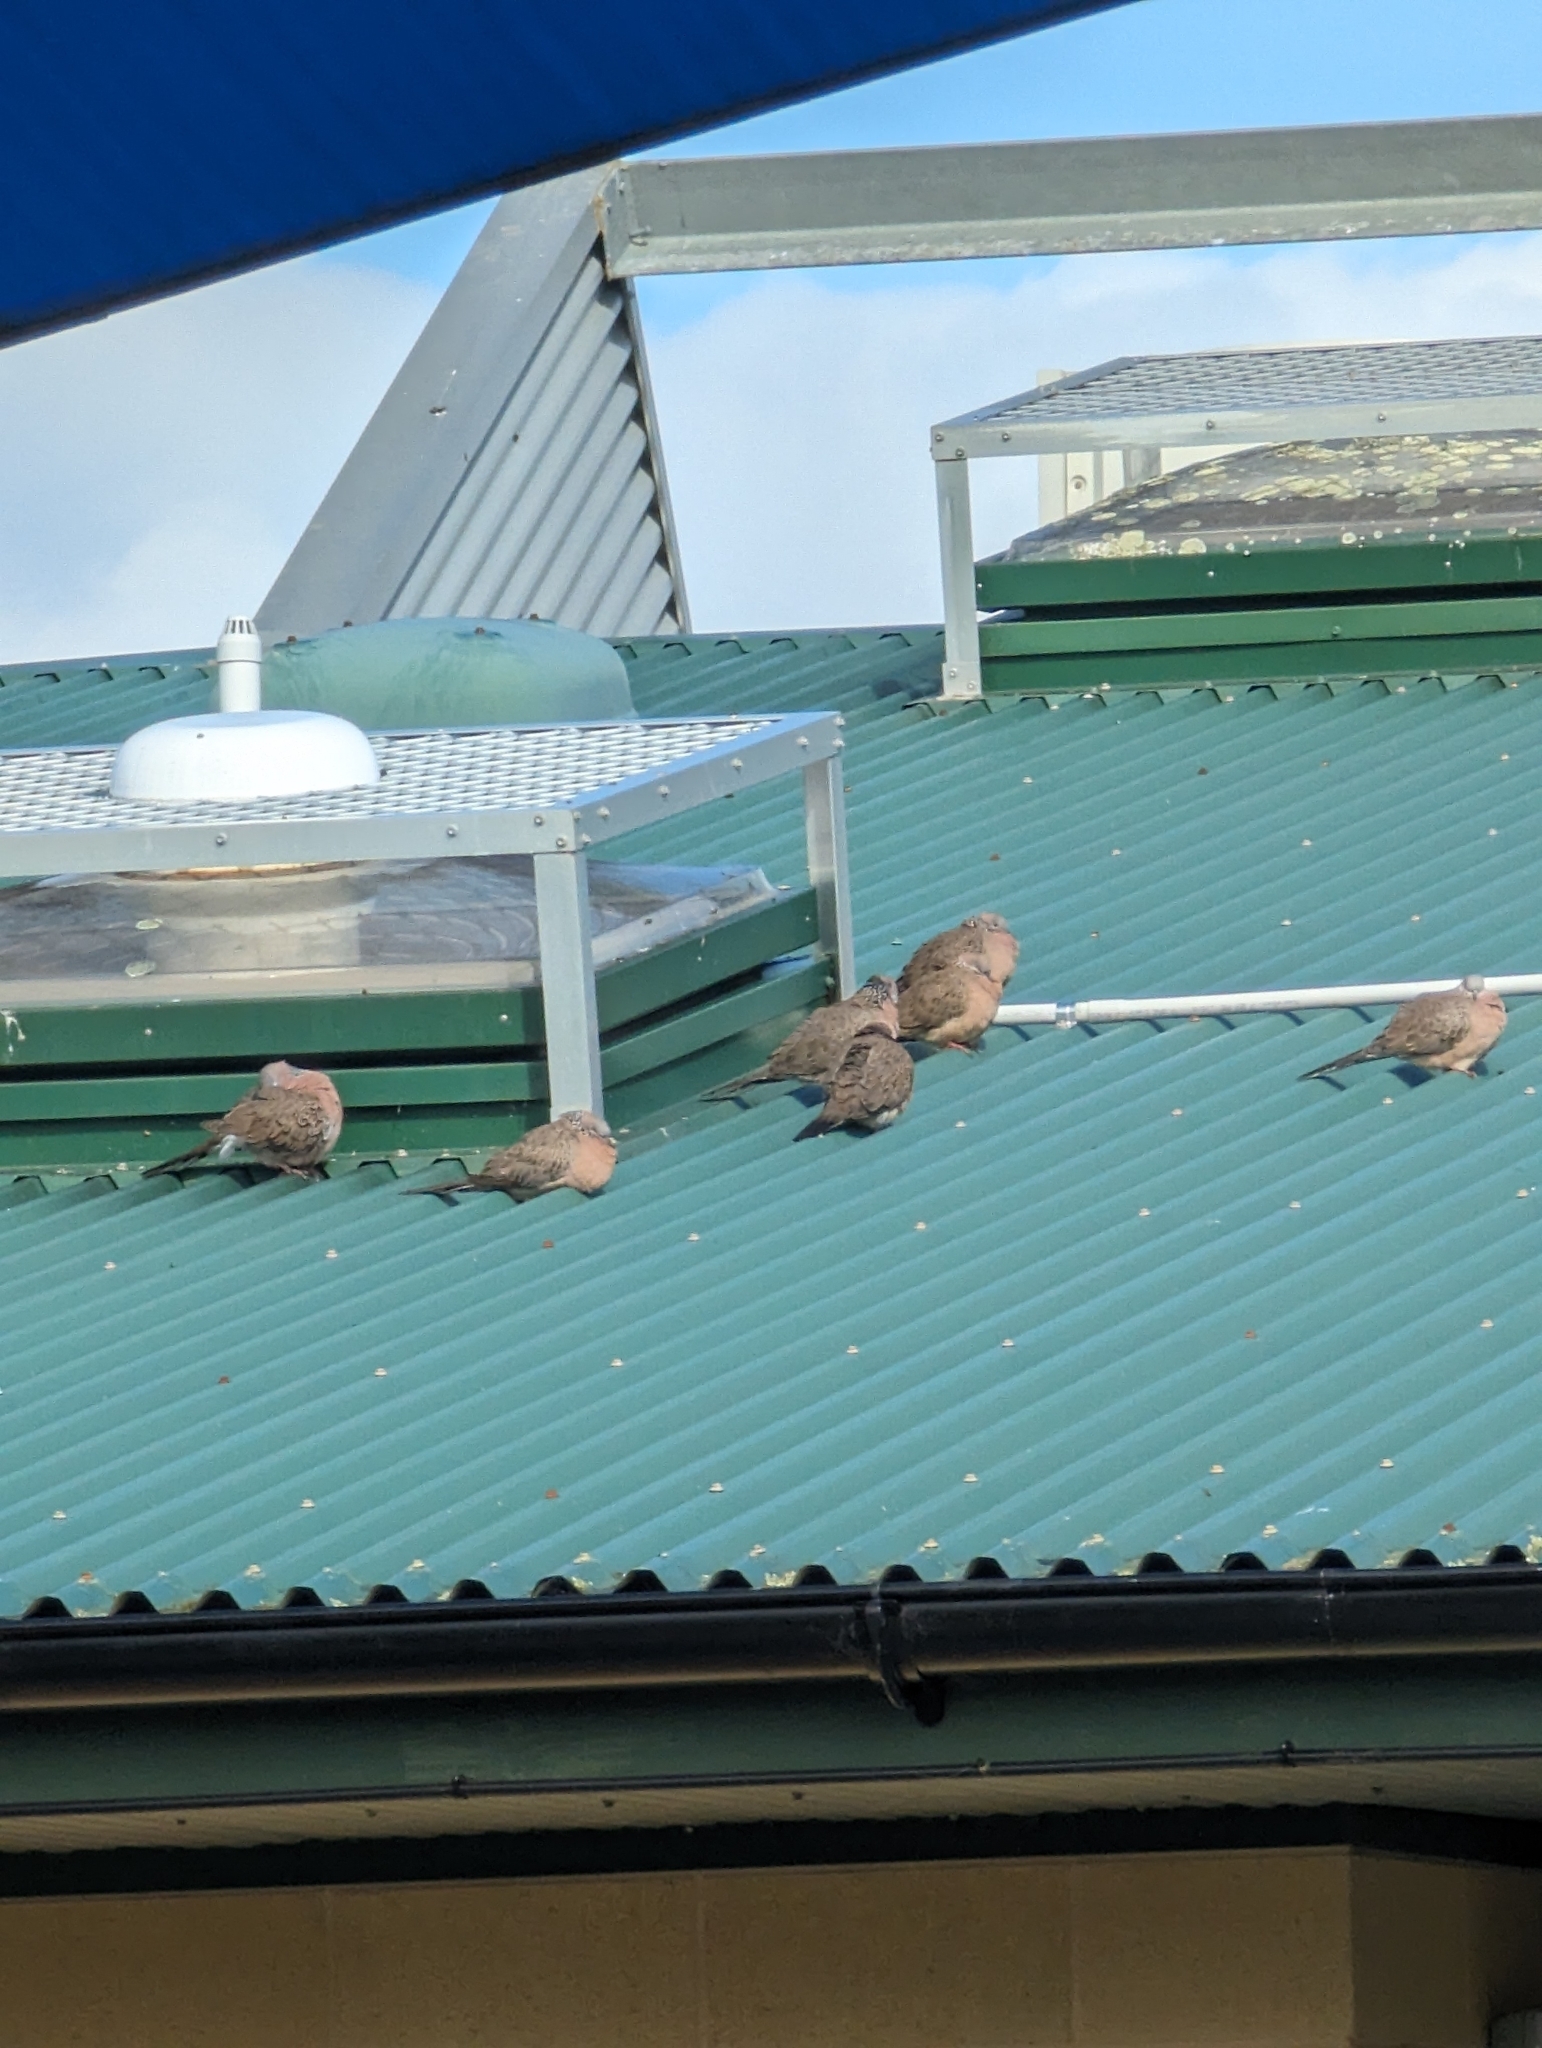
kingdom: Animalia
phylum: Chordata
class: Aves
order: Columbiformes
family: Columbidae
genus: Spilopelia
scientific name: Spilopelia chinensis
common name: Spotted dove
